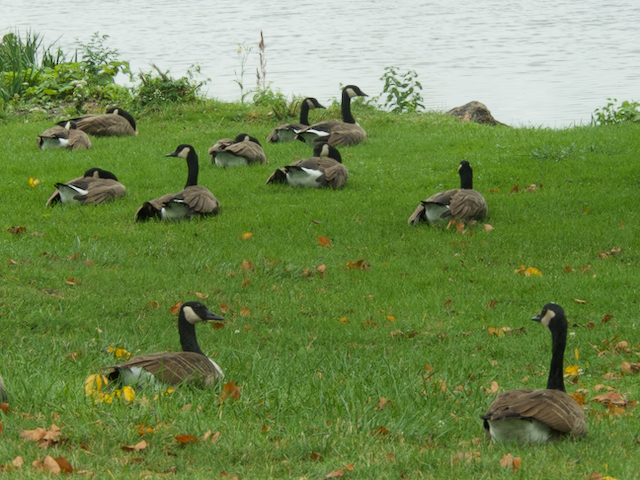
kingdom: Animalia
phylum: Chordata
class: Aves
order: Anseriformes
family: Anatidae
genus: Branta
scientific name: Branta canadensis
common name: Canada goose
